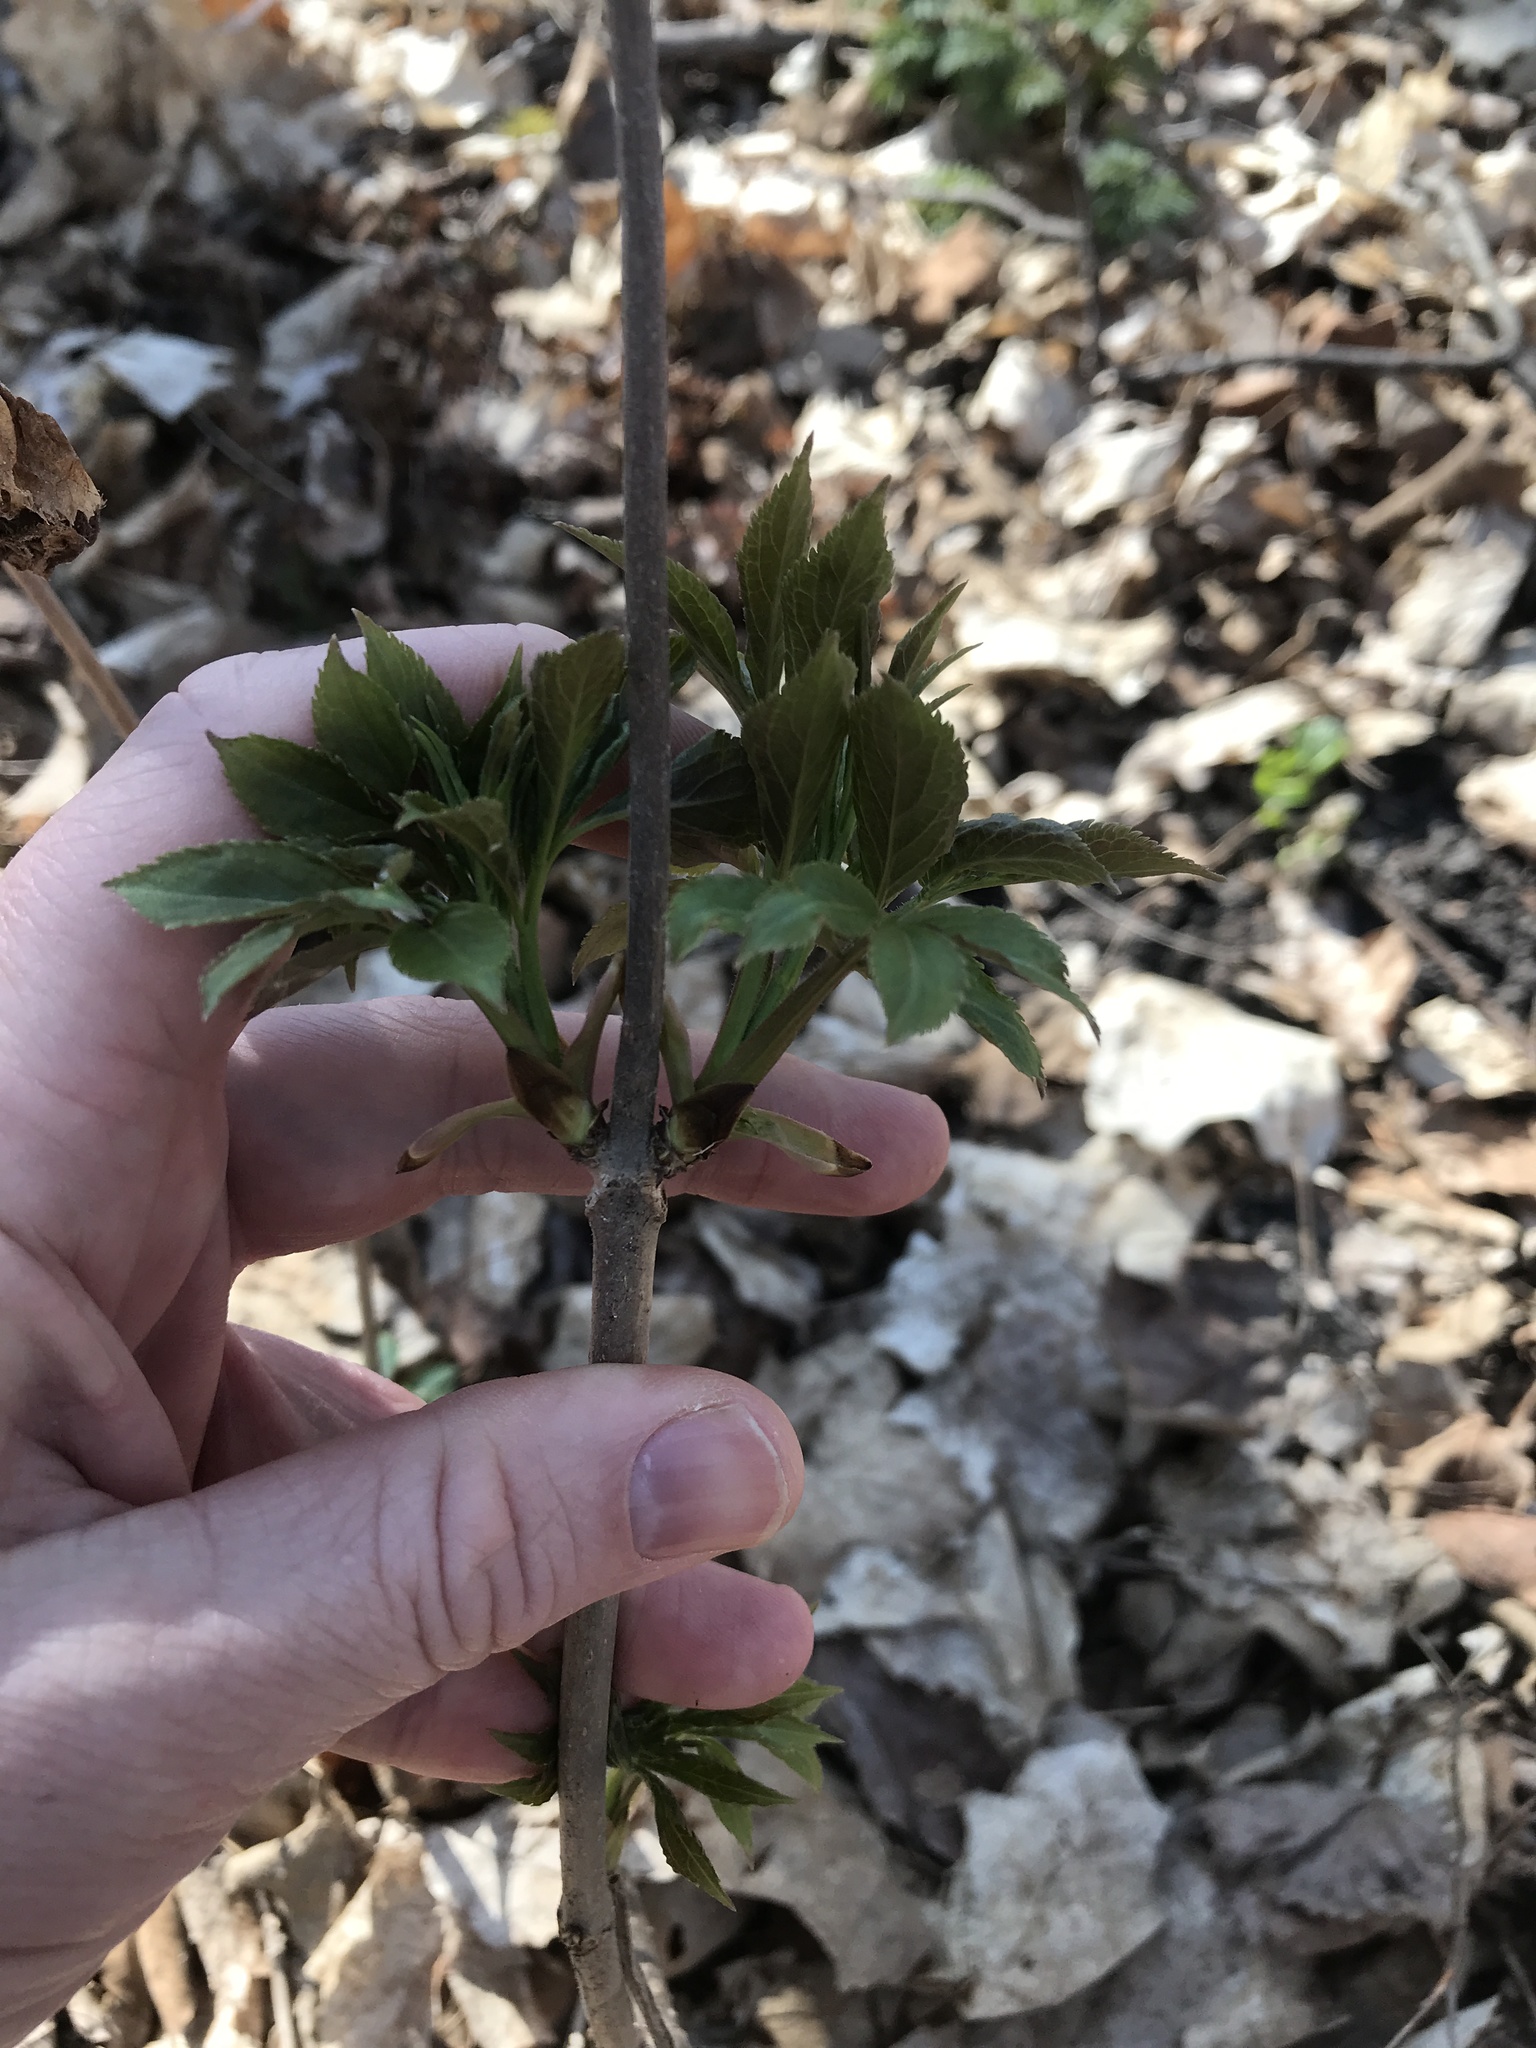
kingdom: Plantae
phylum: Tracheophyta
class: Magnoliopsida
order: Dipsacales
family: Viburnaceae
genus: Sambucus
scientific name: Sambucus racemosa
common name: Red-berried elder
